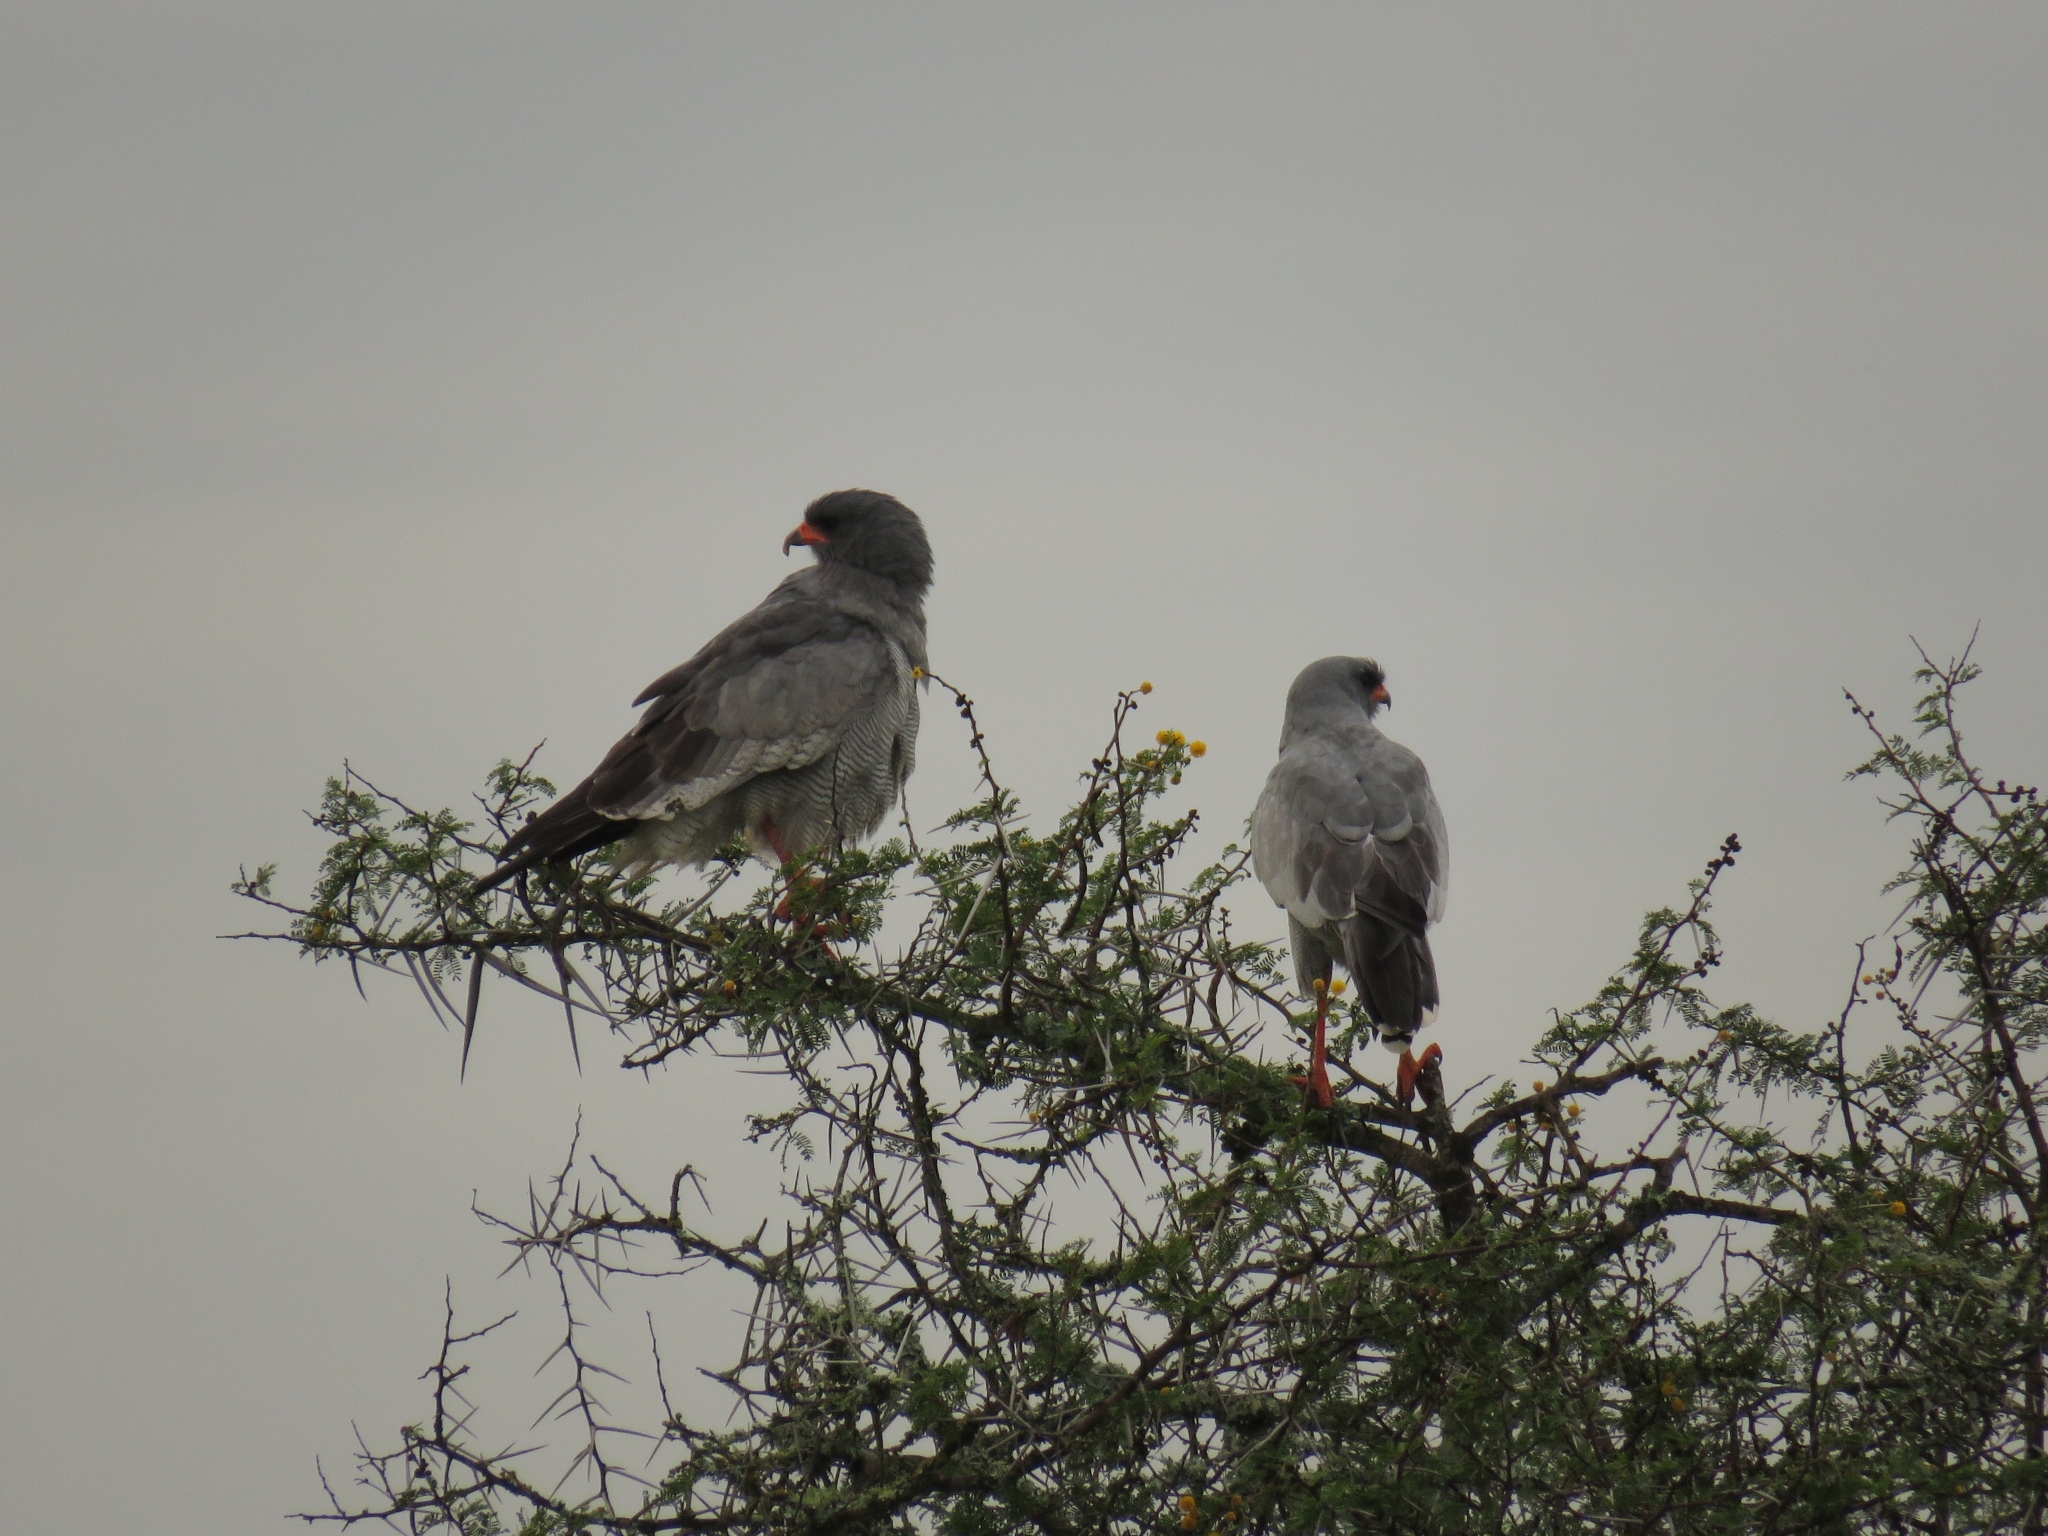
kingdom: Animalia
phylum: Chordata
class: Aves
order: Accipitriformes
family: Accipitridae
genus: Melierax
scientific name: Melierax canorus
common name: Pale chanting-goshawk
